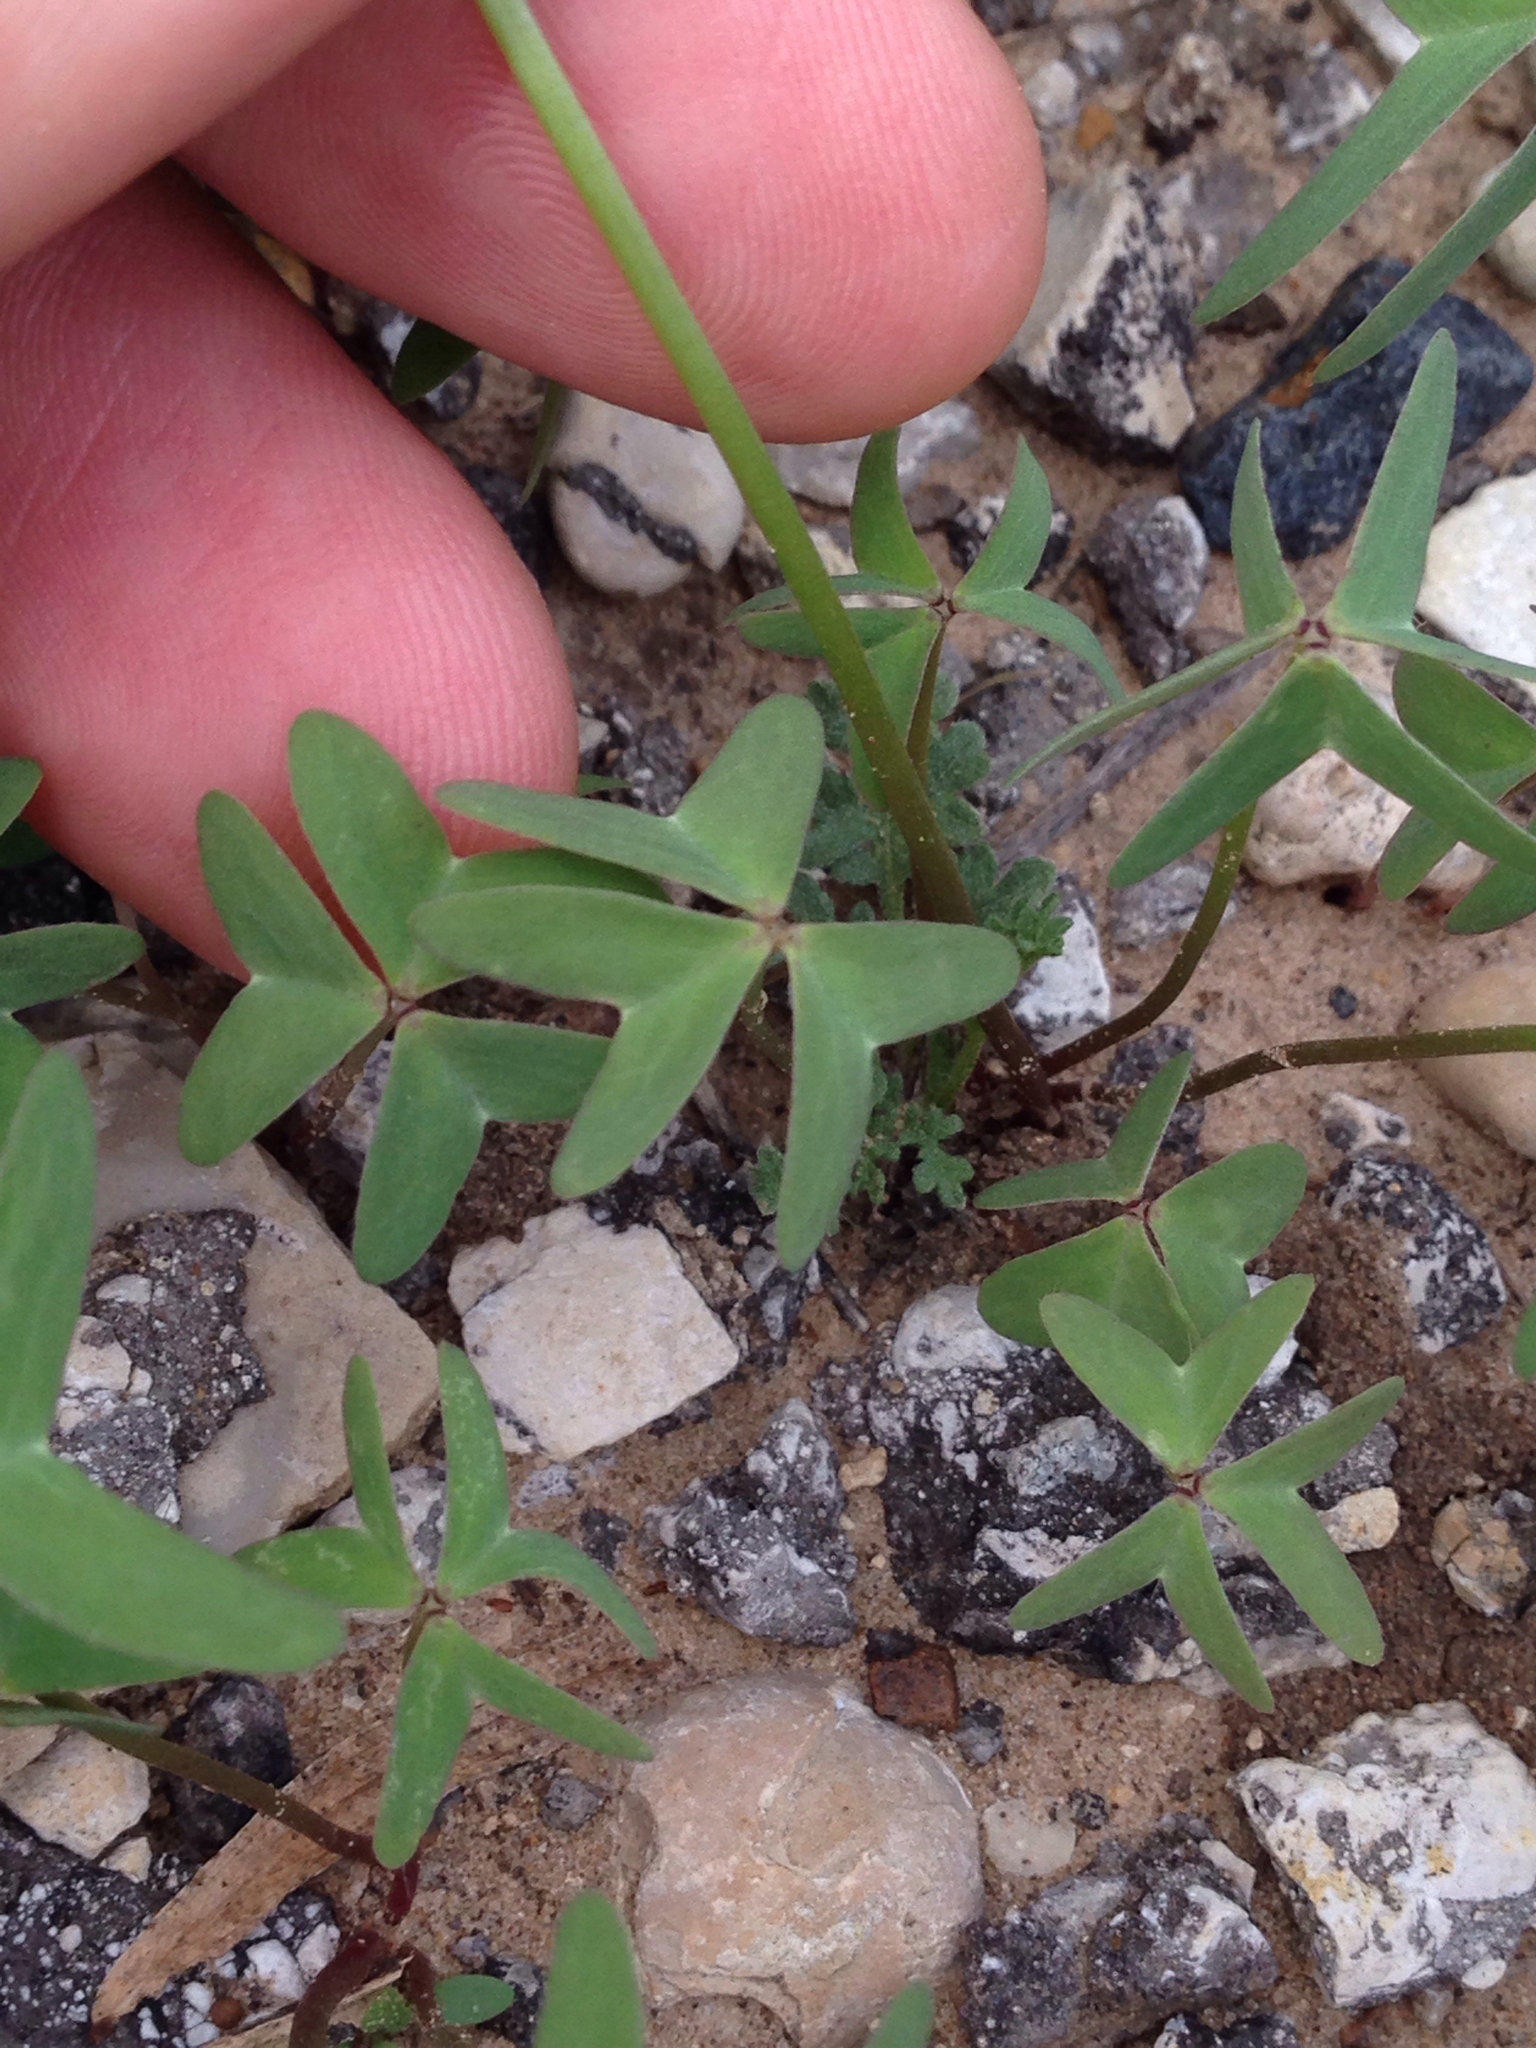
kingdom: Plantae
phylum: Tracheophyta
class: Magnoliopsida
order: Oxalidales
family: Oxalidaceae
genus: Oxalis
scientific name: Oxalis drummondii
